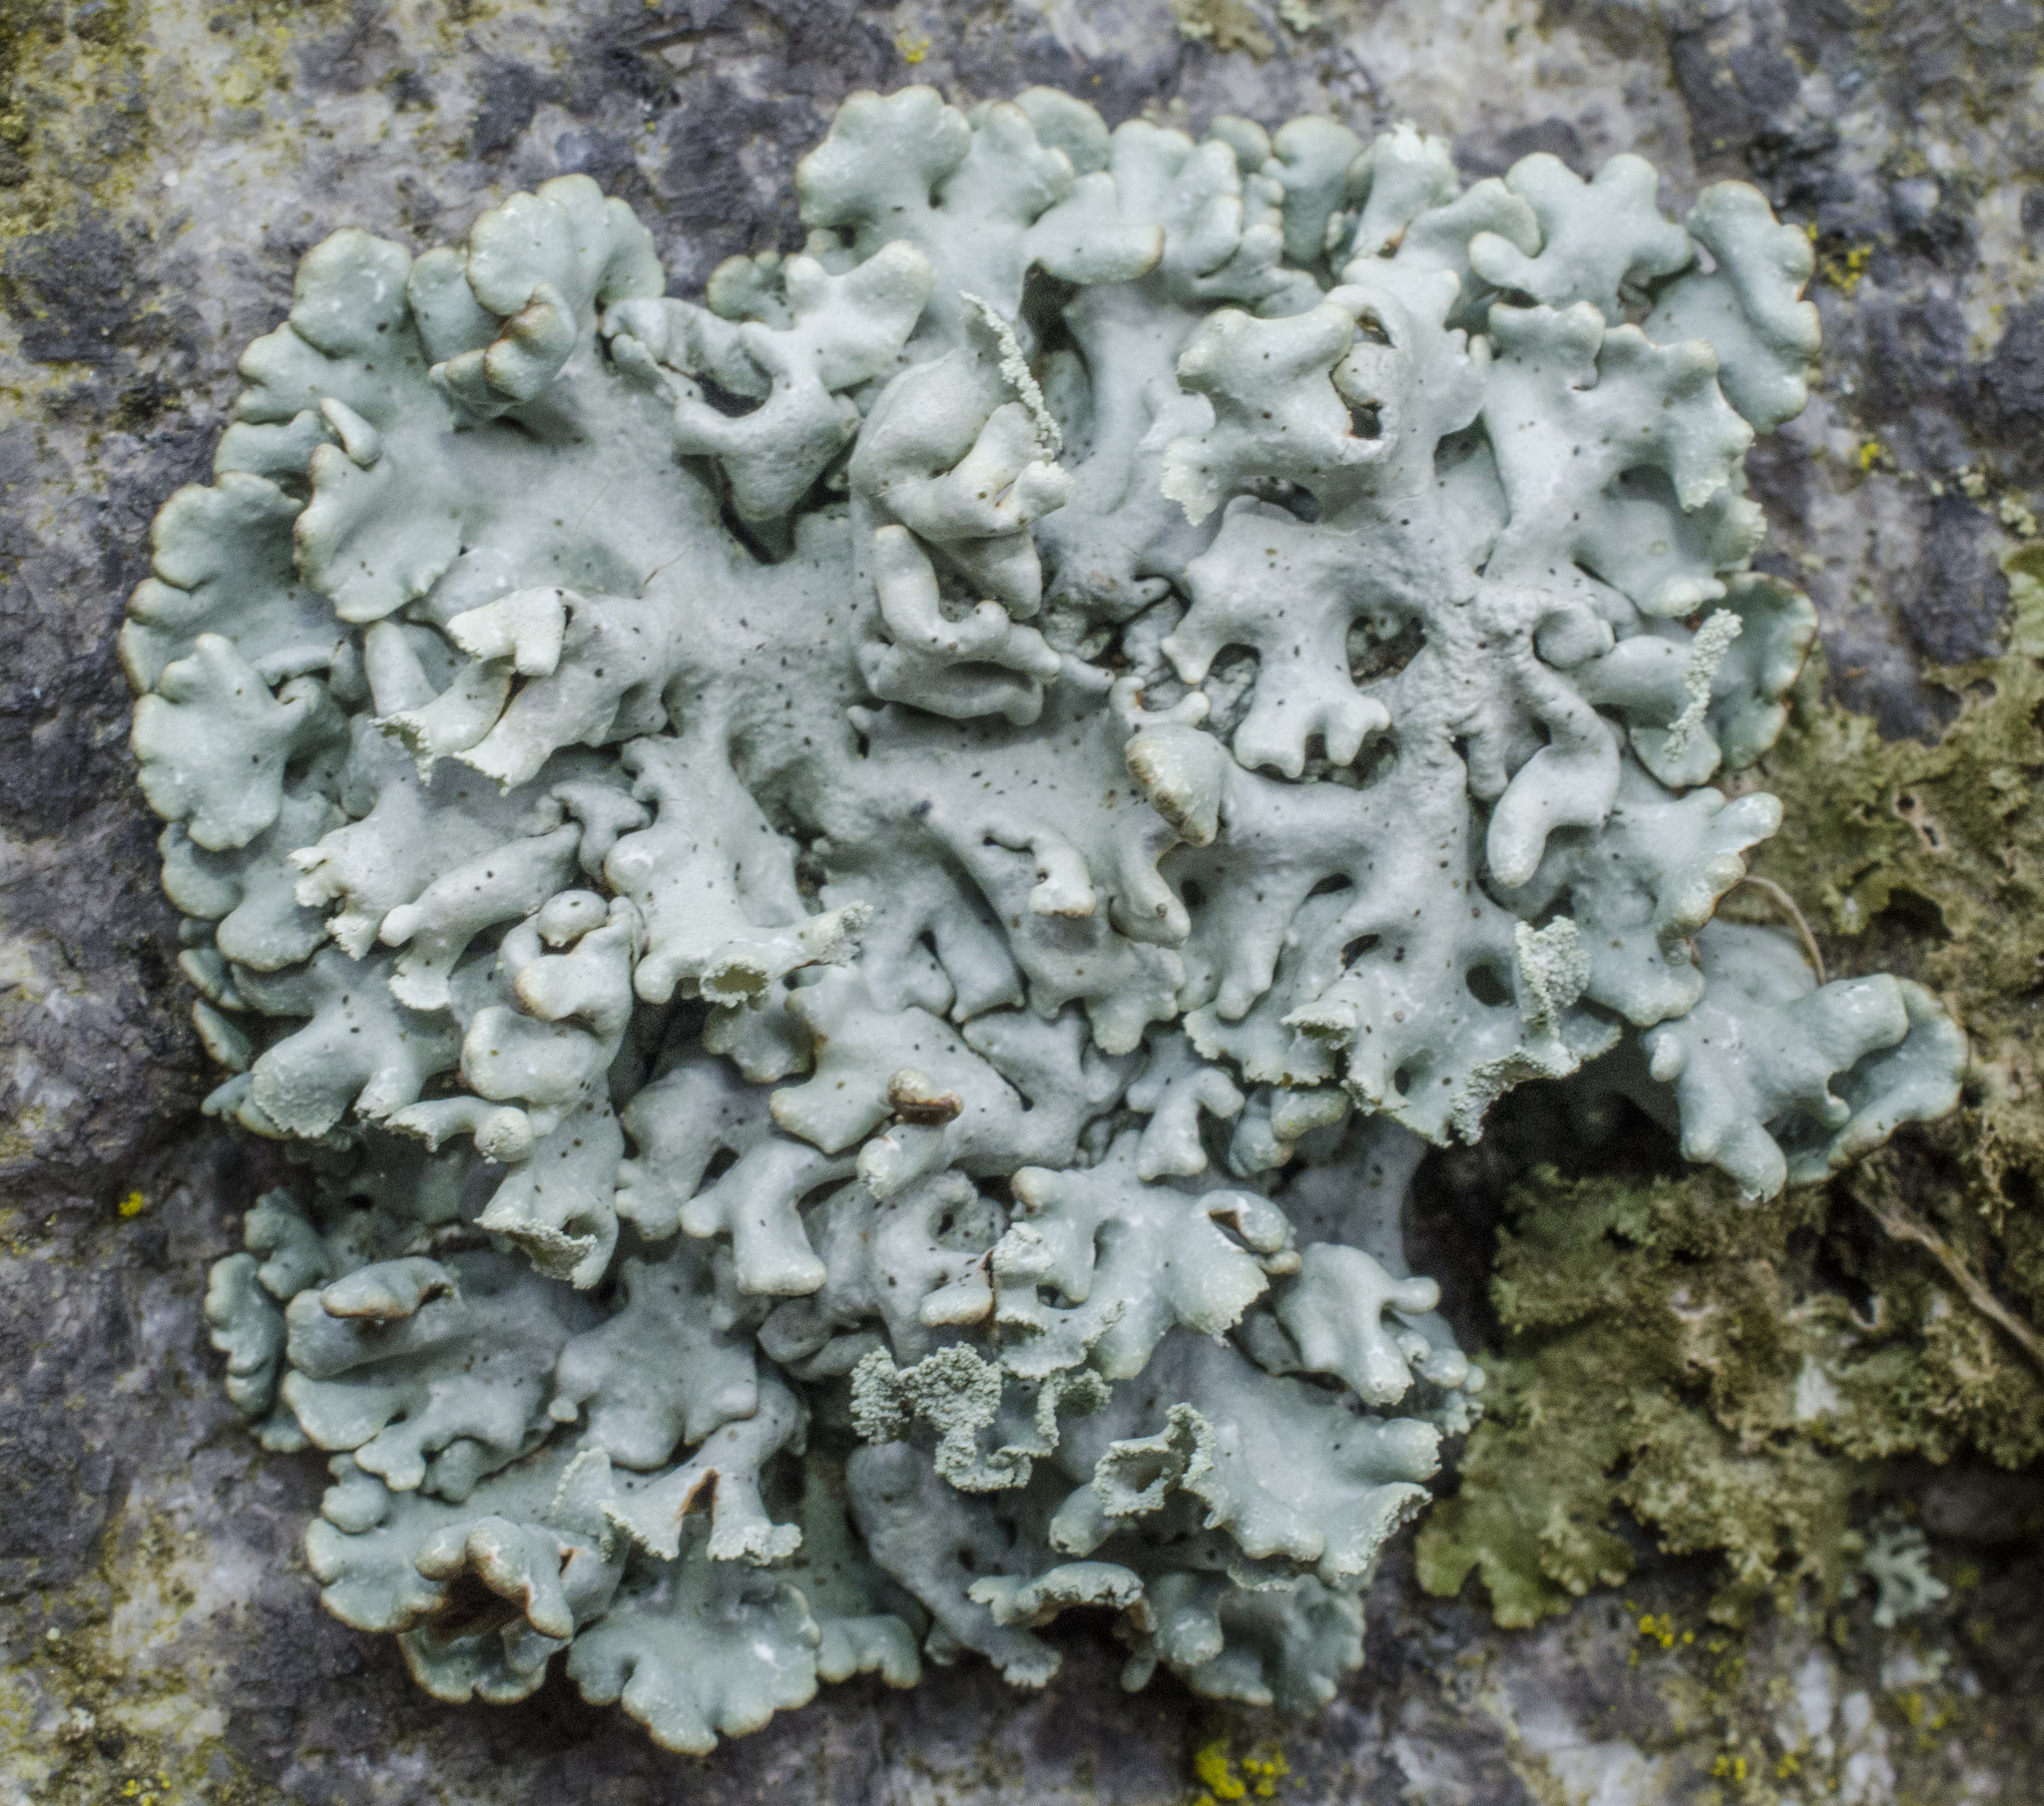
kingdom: Fungi
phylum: Ascomycota
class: Lecanoromycetes
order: Lecanorales
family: Parmeliaceae
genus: Hypogymnia
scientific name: Hypogymnia physodes
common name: Dark crottle
